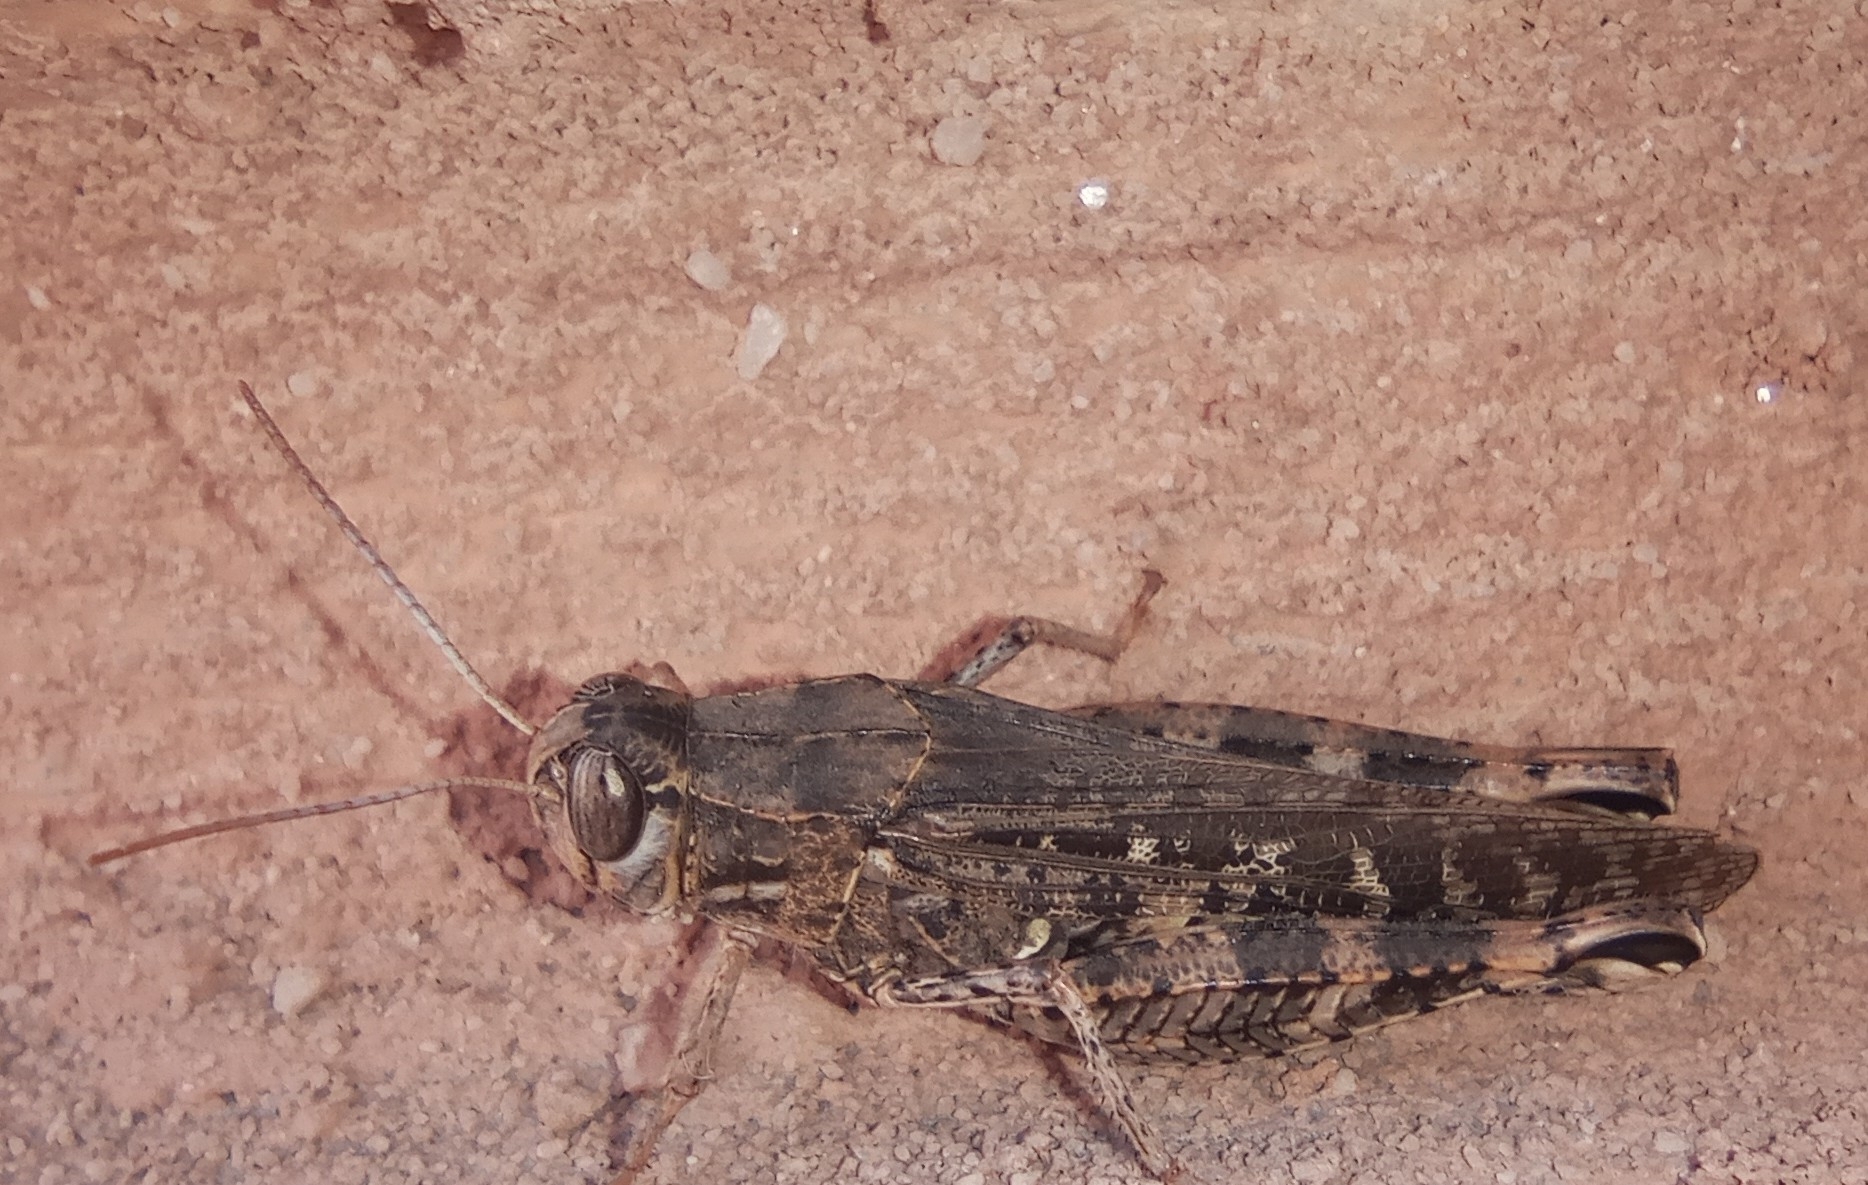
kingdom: Animalia
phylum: Arthropoda
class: Insecta
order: Orthoptera
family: Acrididae
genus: Calliptamus
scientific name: Calliptamus italicus
